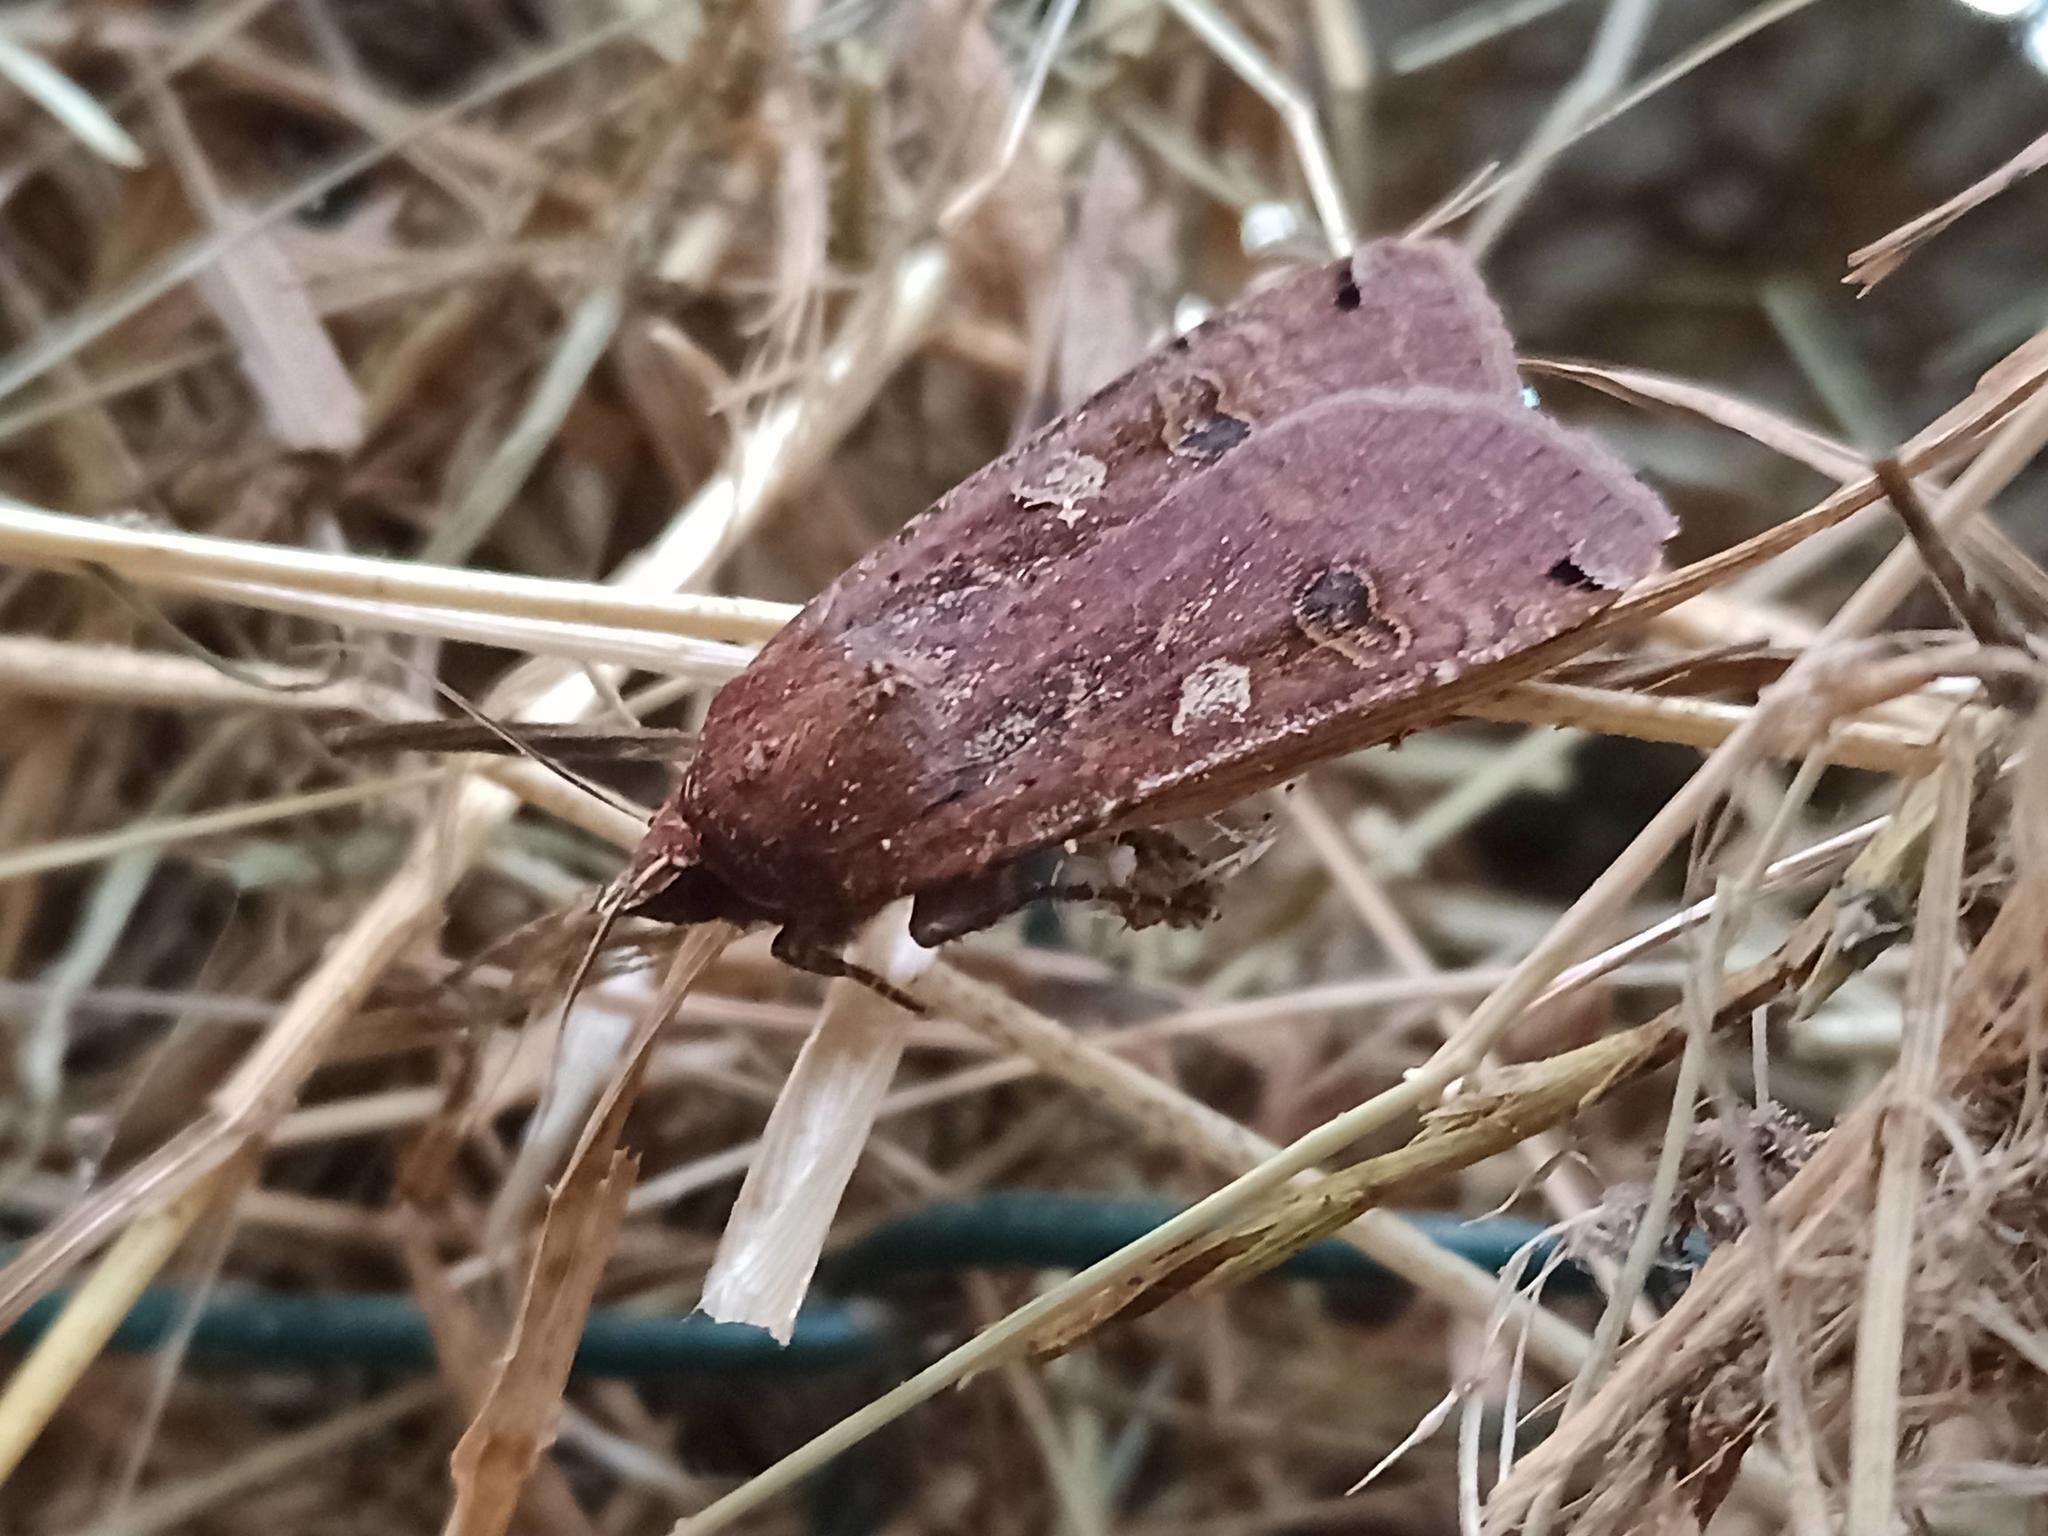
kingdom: Animalia
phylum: Arthropoda
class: Insecta
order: Lepidoptera
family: Noctuidae
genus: Noctua
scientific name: Noctua pronuba
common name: Large yellow underwing
